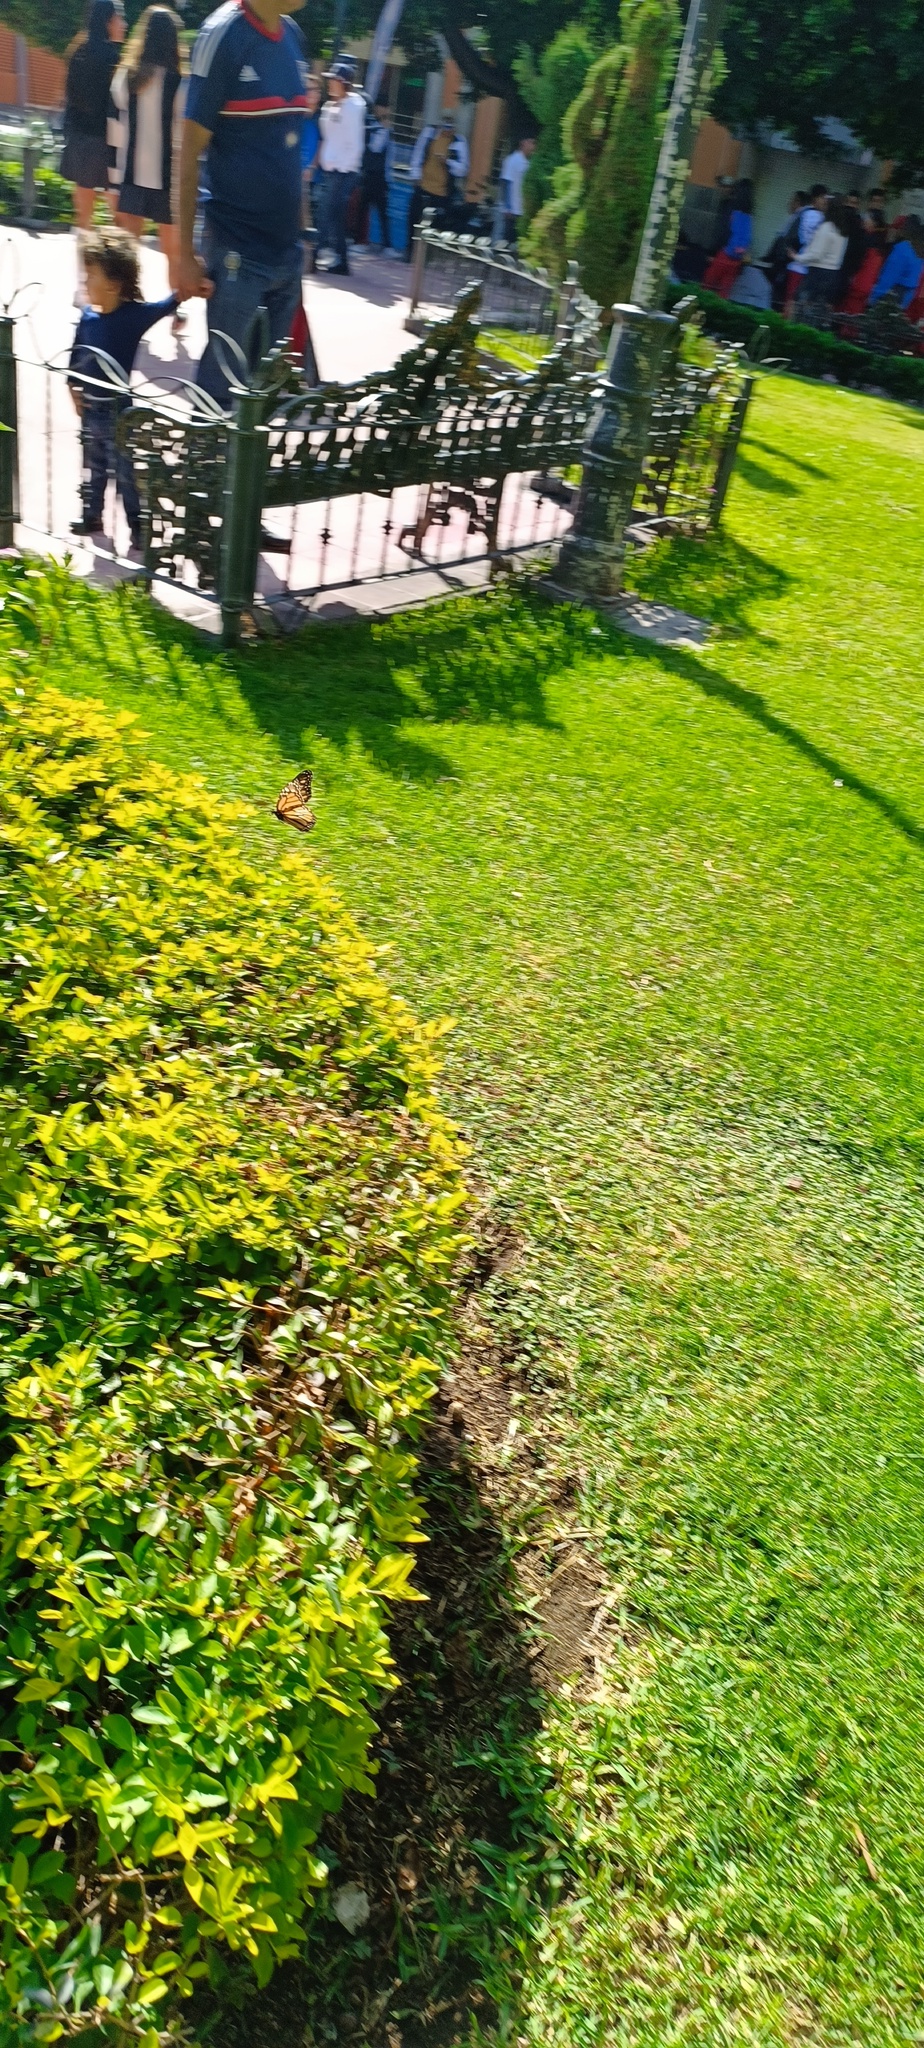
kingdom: Animalia
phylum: Arthropoda
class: Insecta
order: Lepidoptera
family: Nymphalidae
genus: Danaus
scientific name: Danaus plexippus
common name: Monarch
